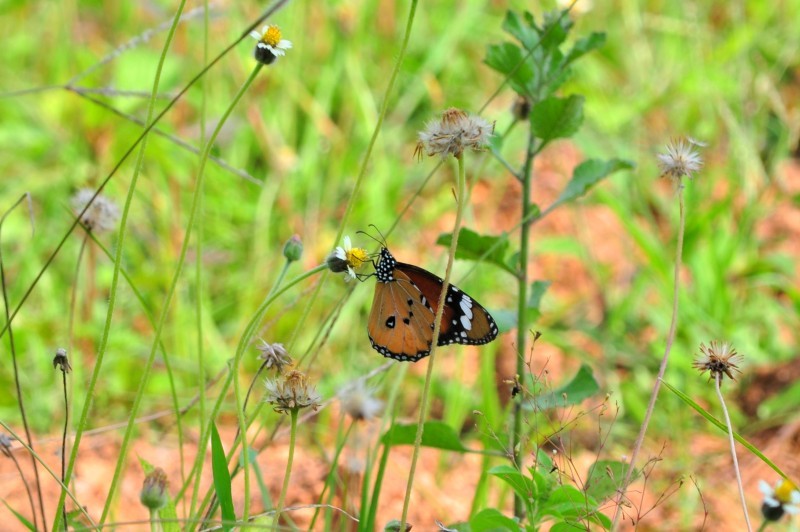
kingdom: Animalia
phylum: Arthropoda
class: Insecta
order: Lepidoptera
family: Nymphalidae
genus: Danaus
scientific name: Danaus chrysippus
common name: Plain tiger
